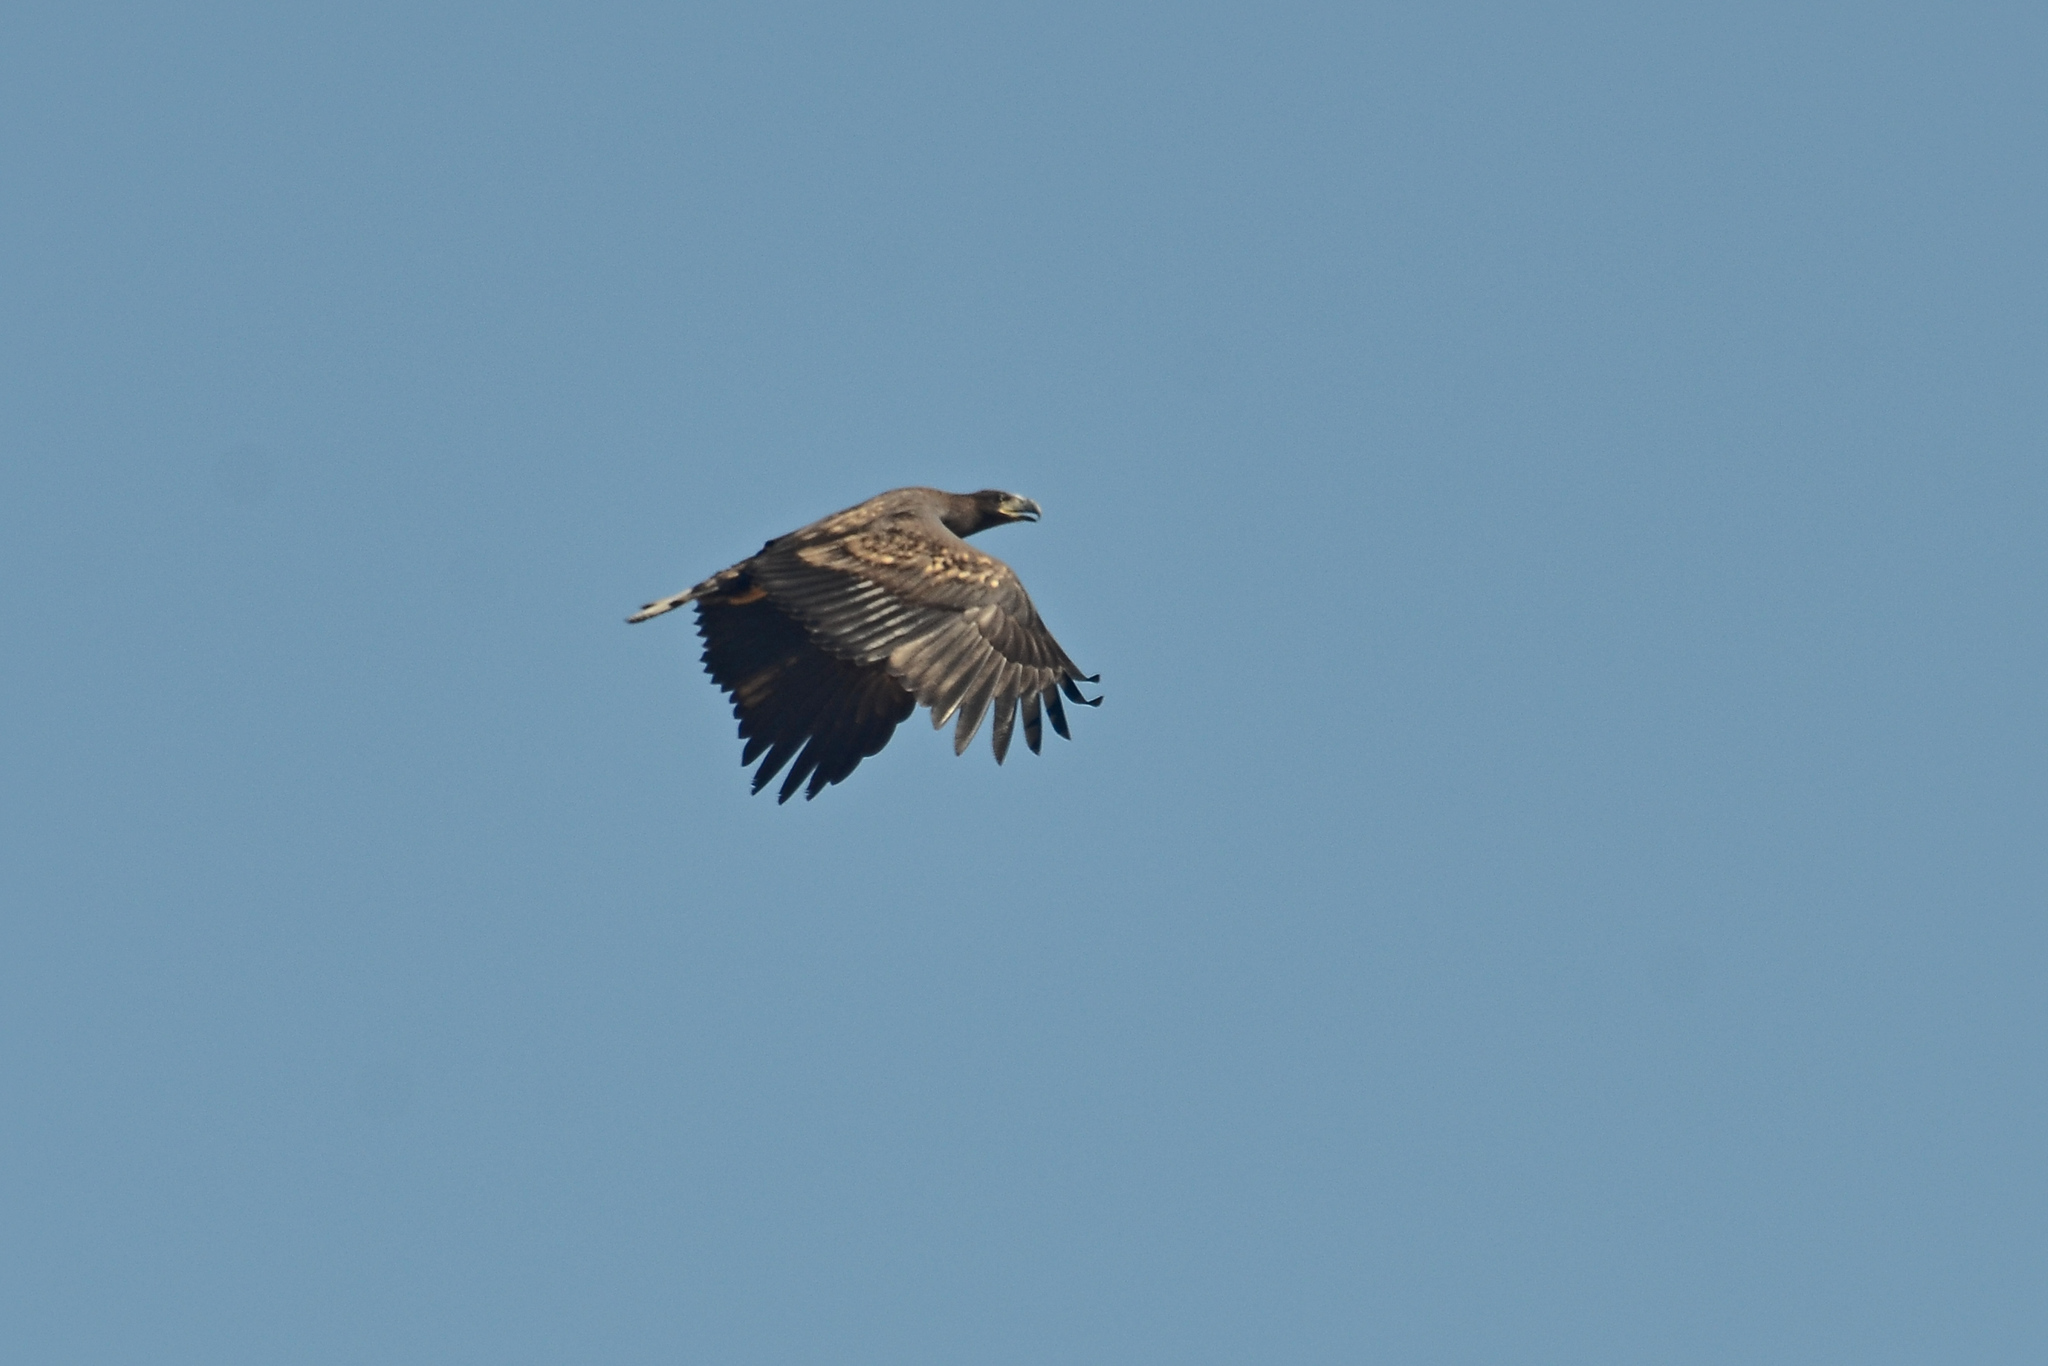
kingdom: Animalia
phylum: Chordata
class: Aves
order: Accipitriformes
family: Accipitridae
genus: Haliaeetus
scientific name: Haliaeetus albicilla
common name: White-tailed eagle
